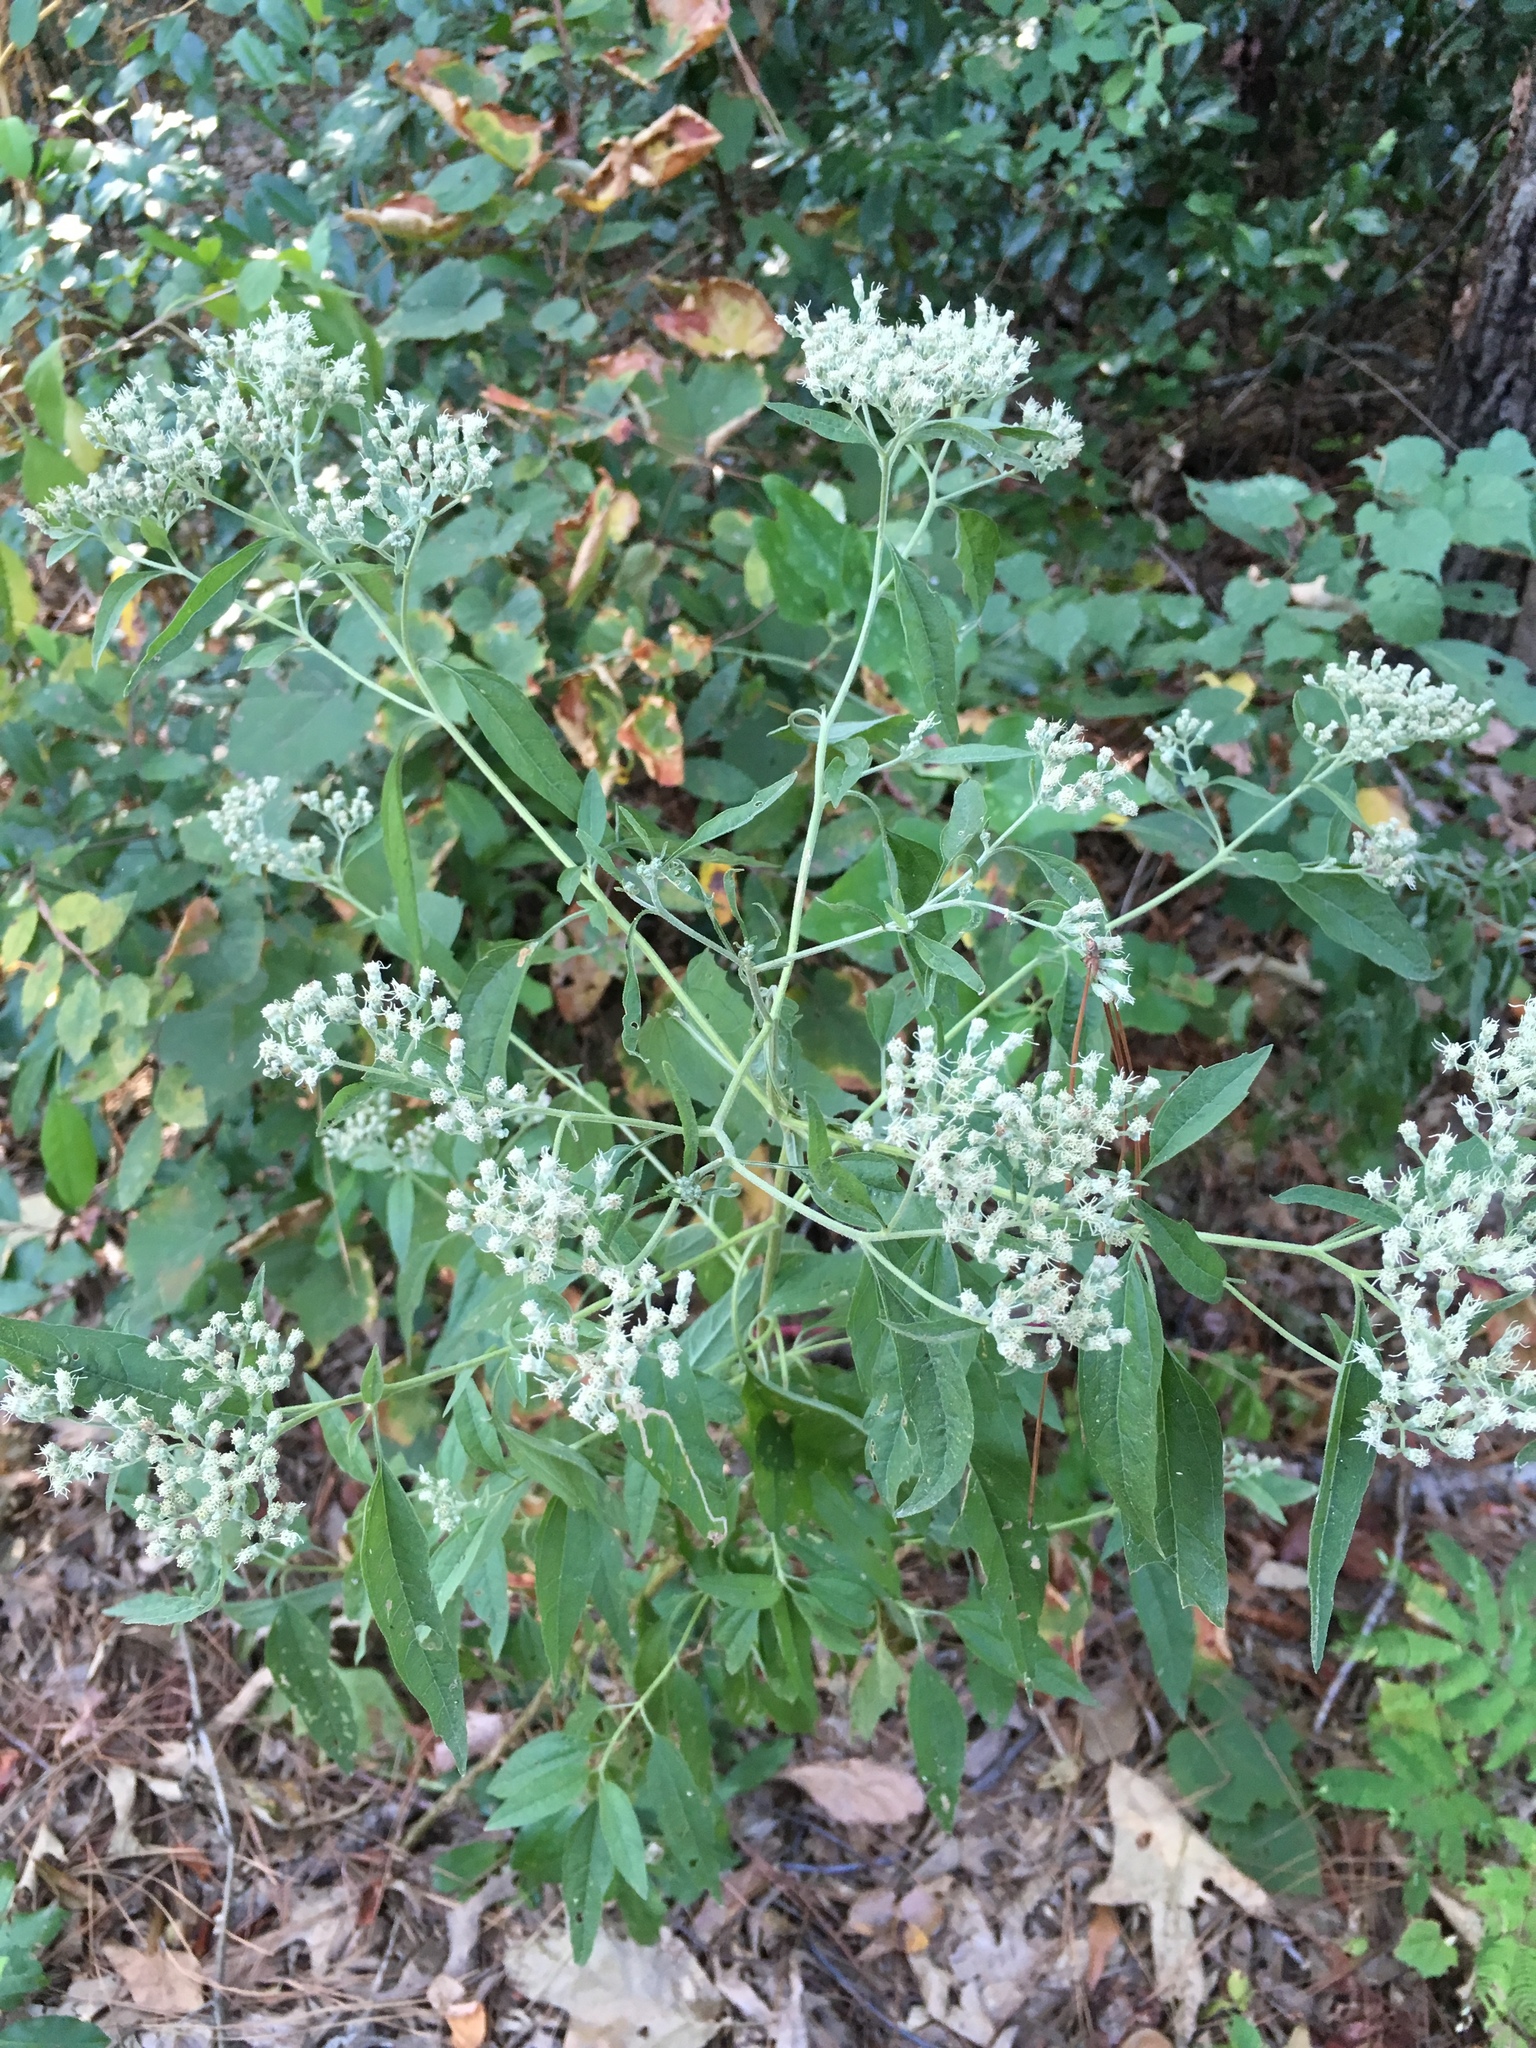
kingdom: Plantae
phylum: Tracheophyta
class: Magnoliopsida
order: Asterales
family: Asteraceae
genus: Eupatorium
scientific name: Eupatorium serotinum
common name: Late boneset
